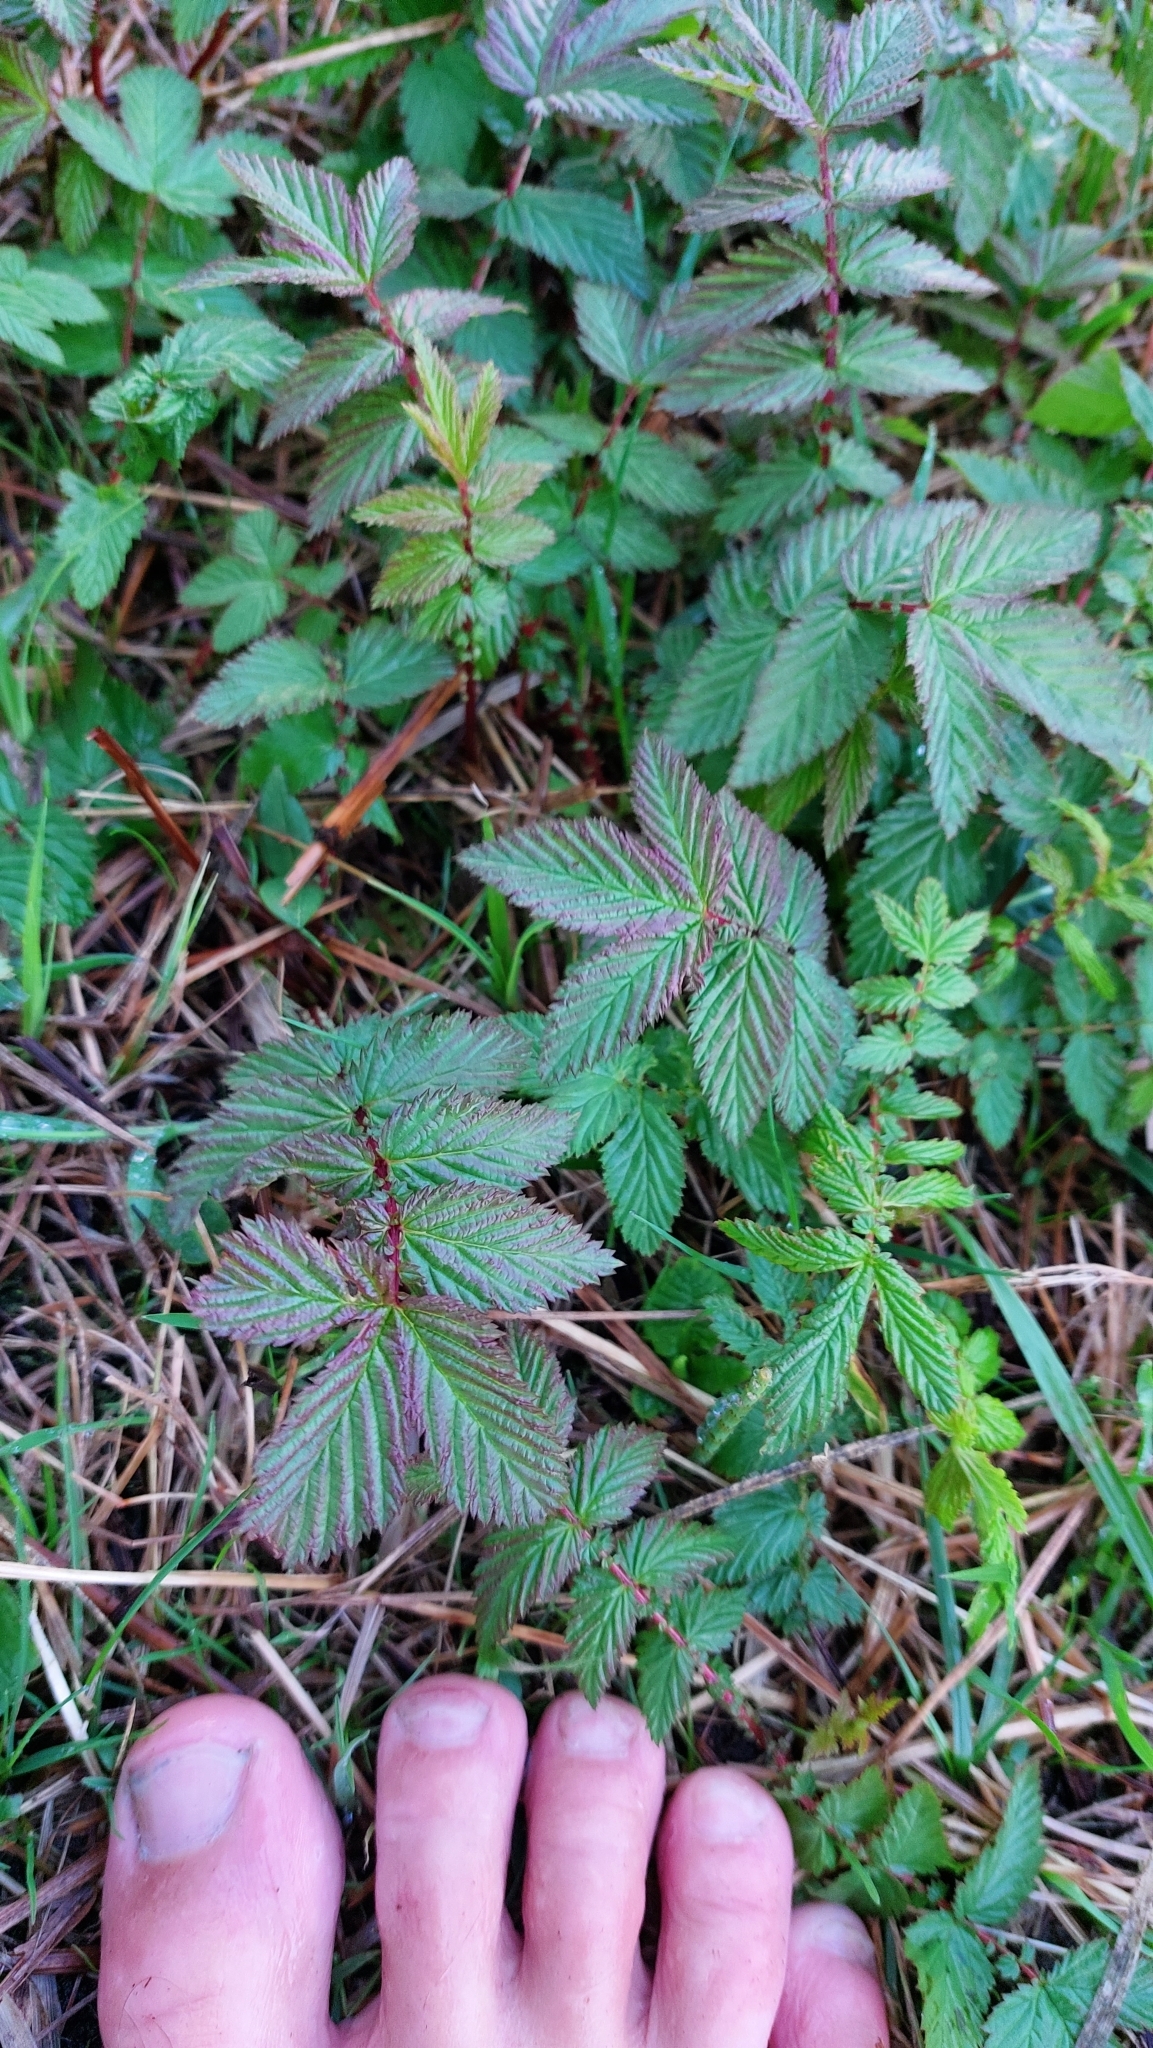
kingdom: Plantae
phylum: Tracheophyta
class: Magnoliopsida
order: Rosales
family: Rosaceae
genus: Filipendula
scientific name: Filipendula ulmaria
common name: Meadowsweet
